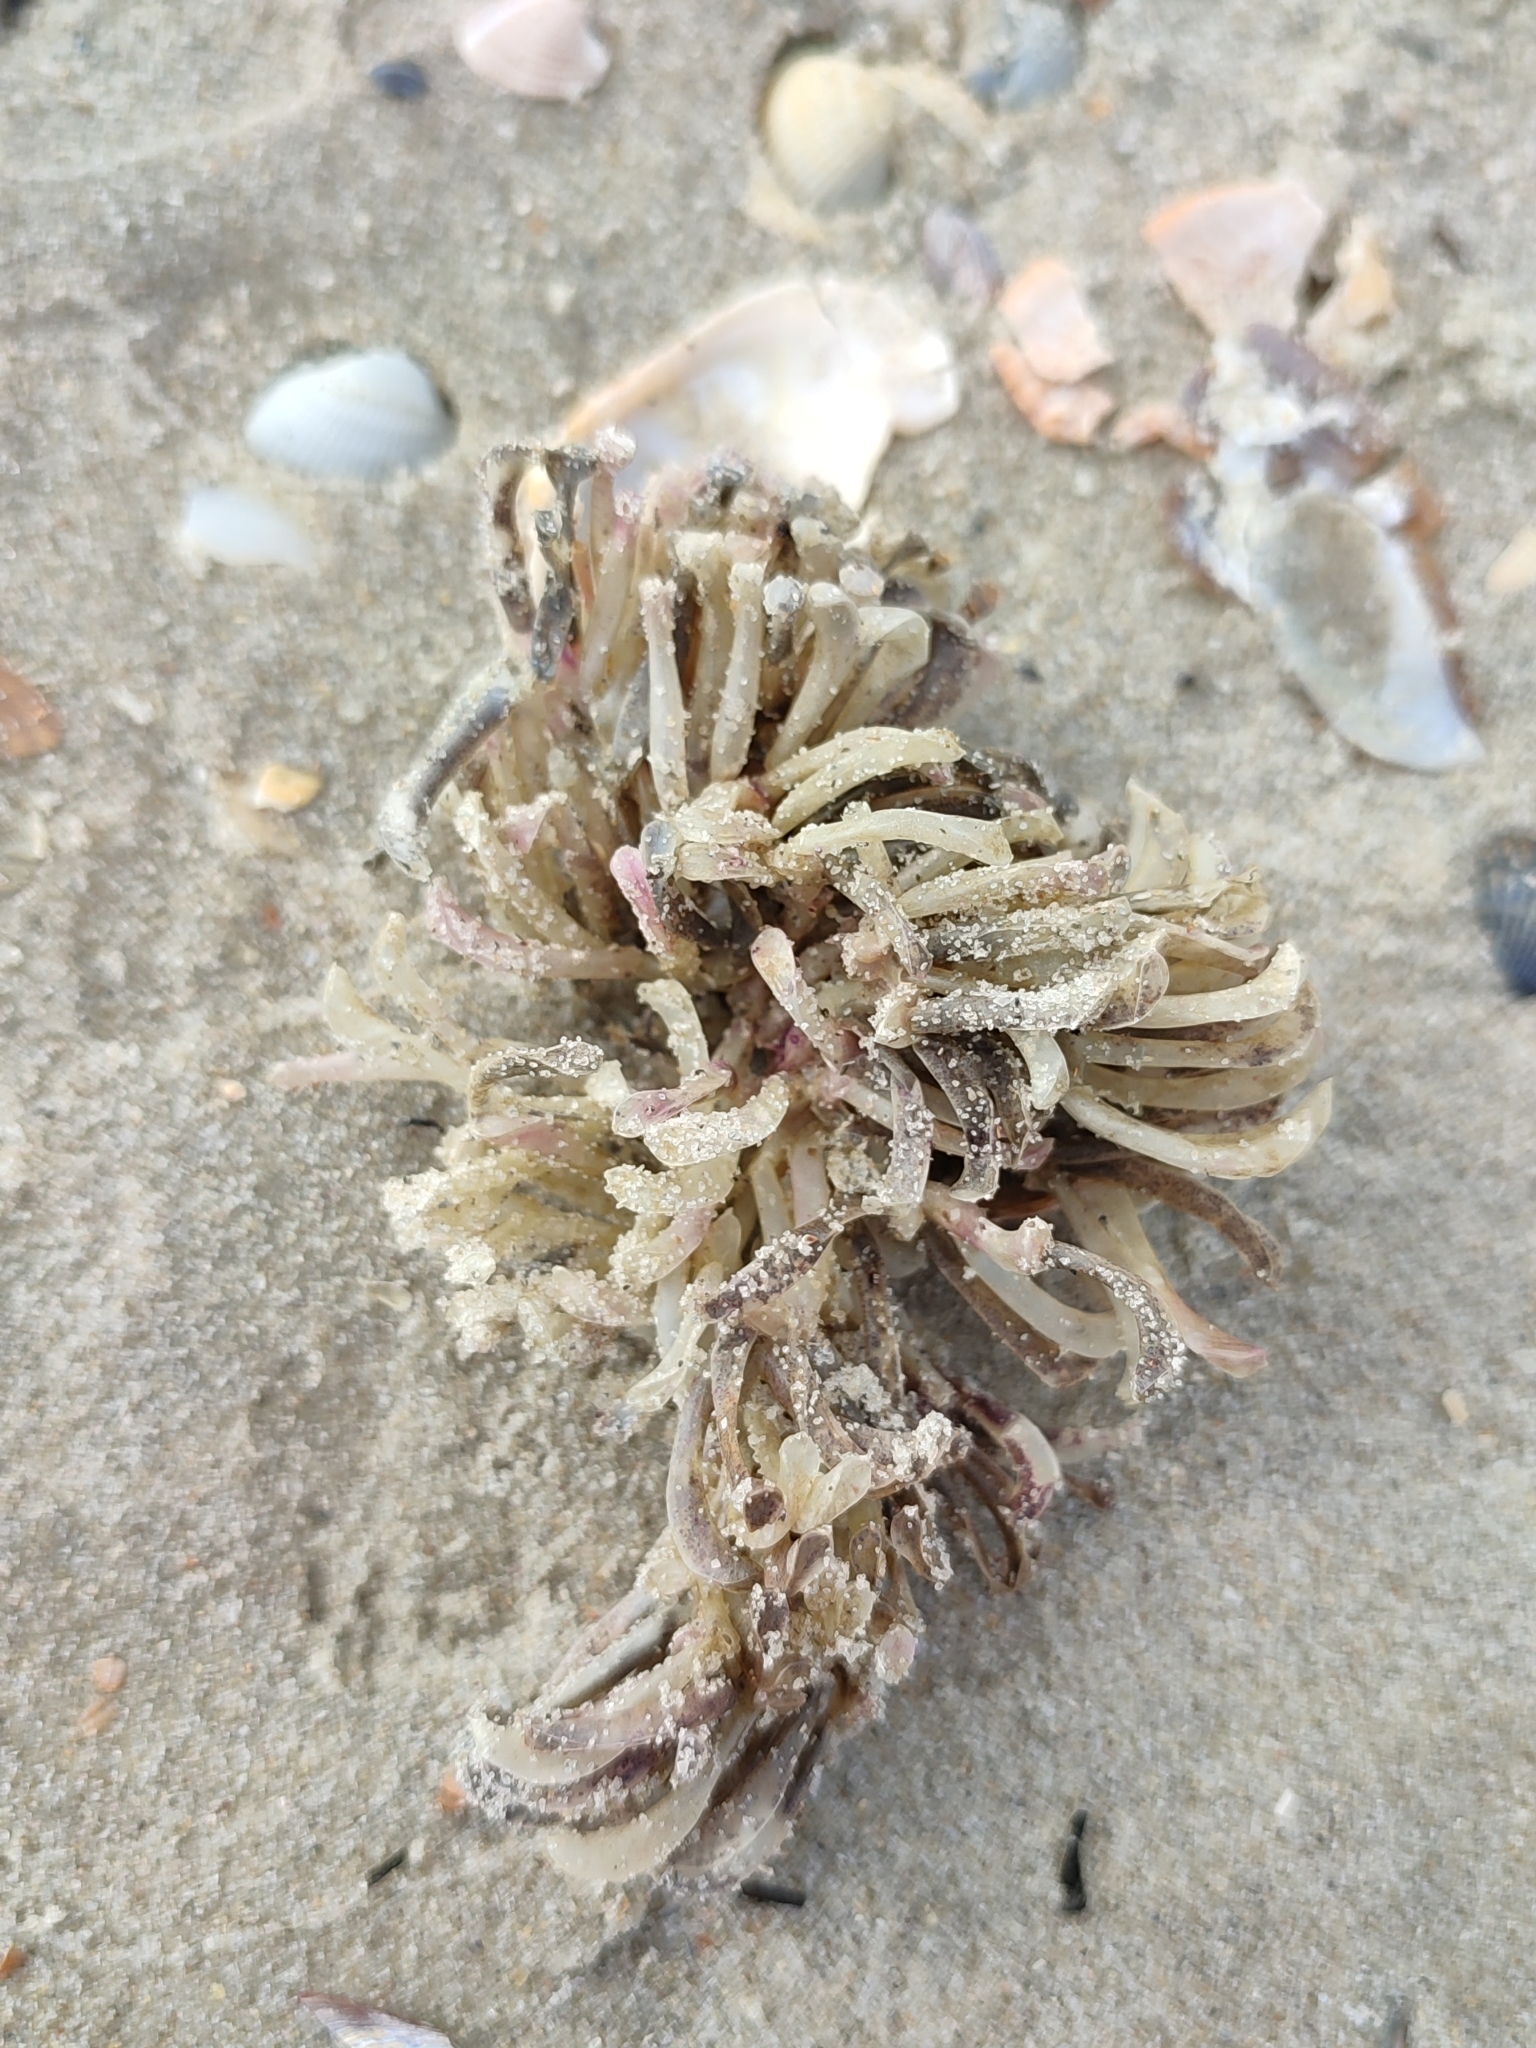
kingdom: Animalia
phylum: Mollusca
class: Gastropoda
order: Neogastropoda
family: Muricidae
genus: Rapana
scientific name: Rapana venosa
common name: Veined rapa whelk
